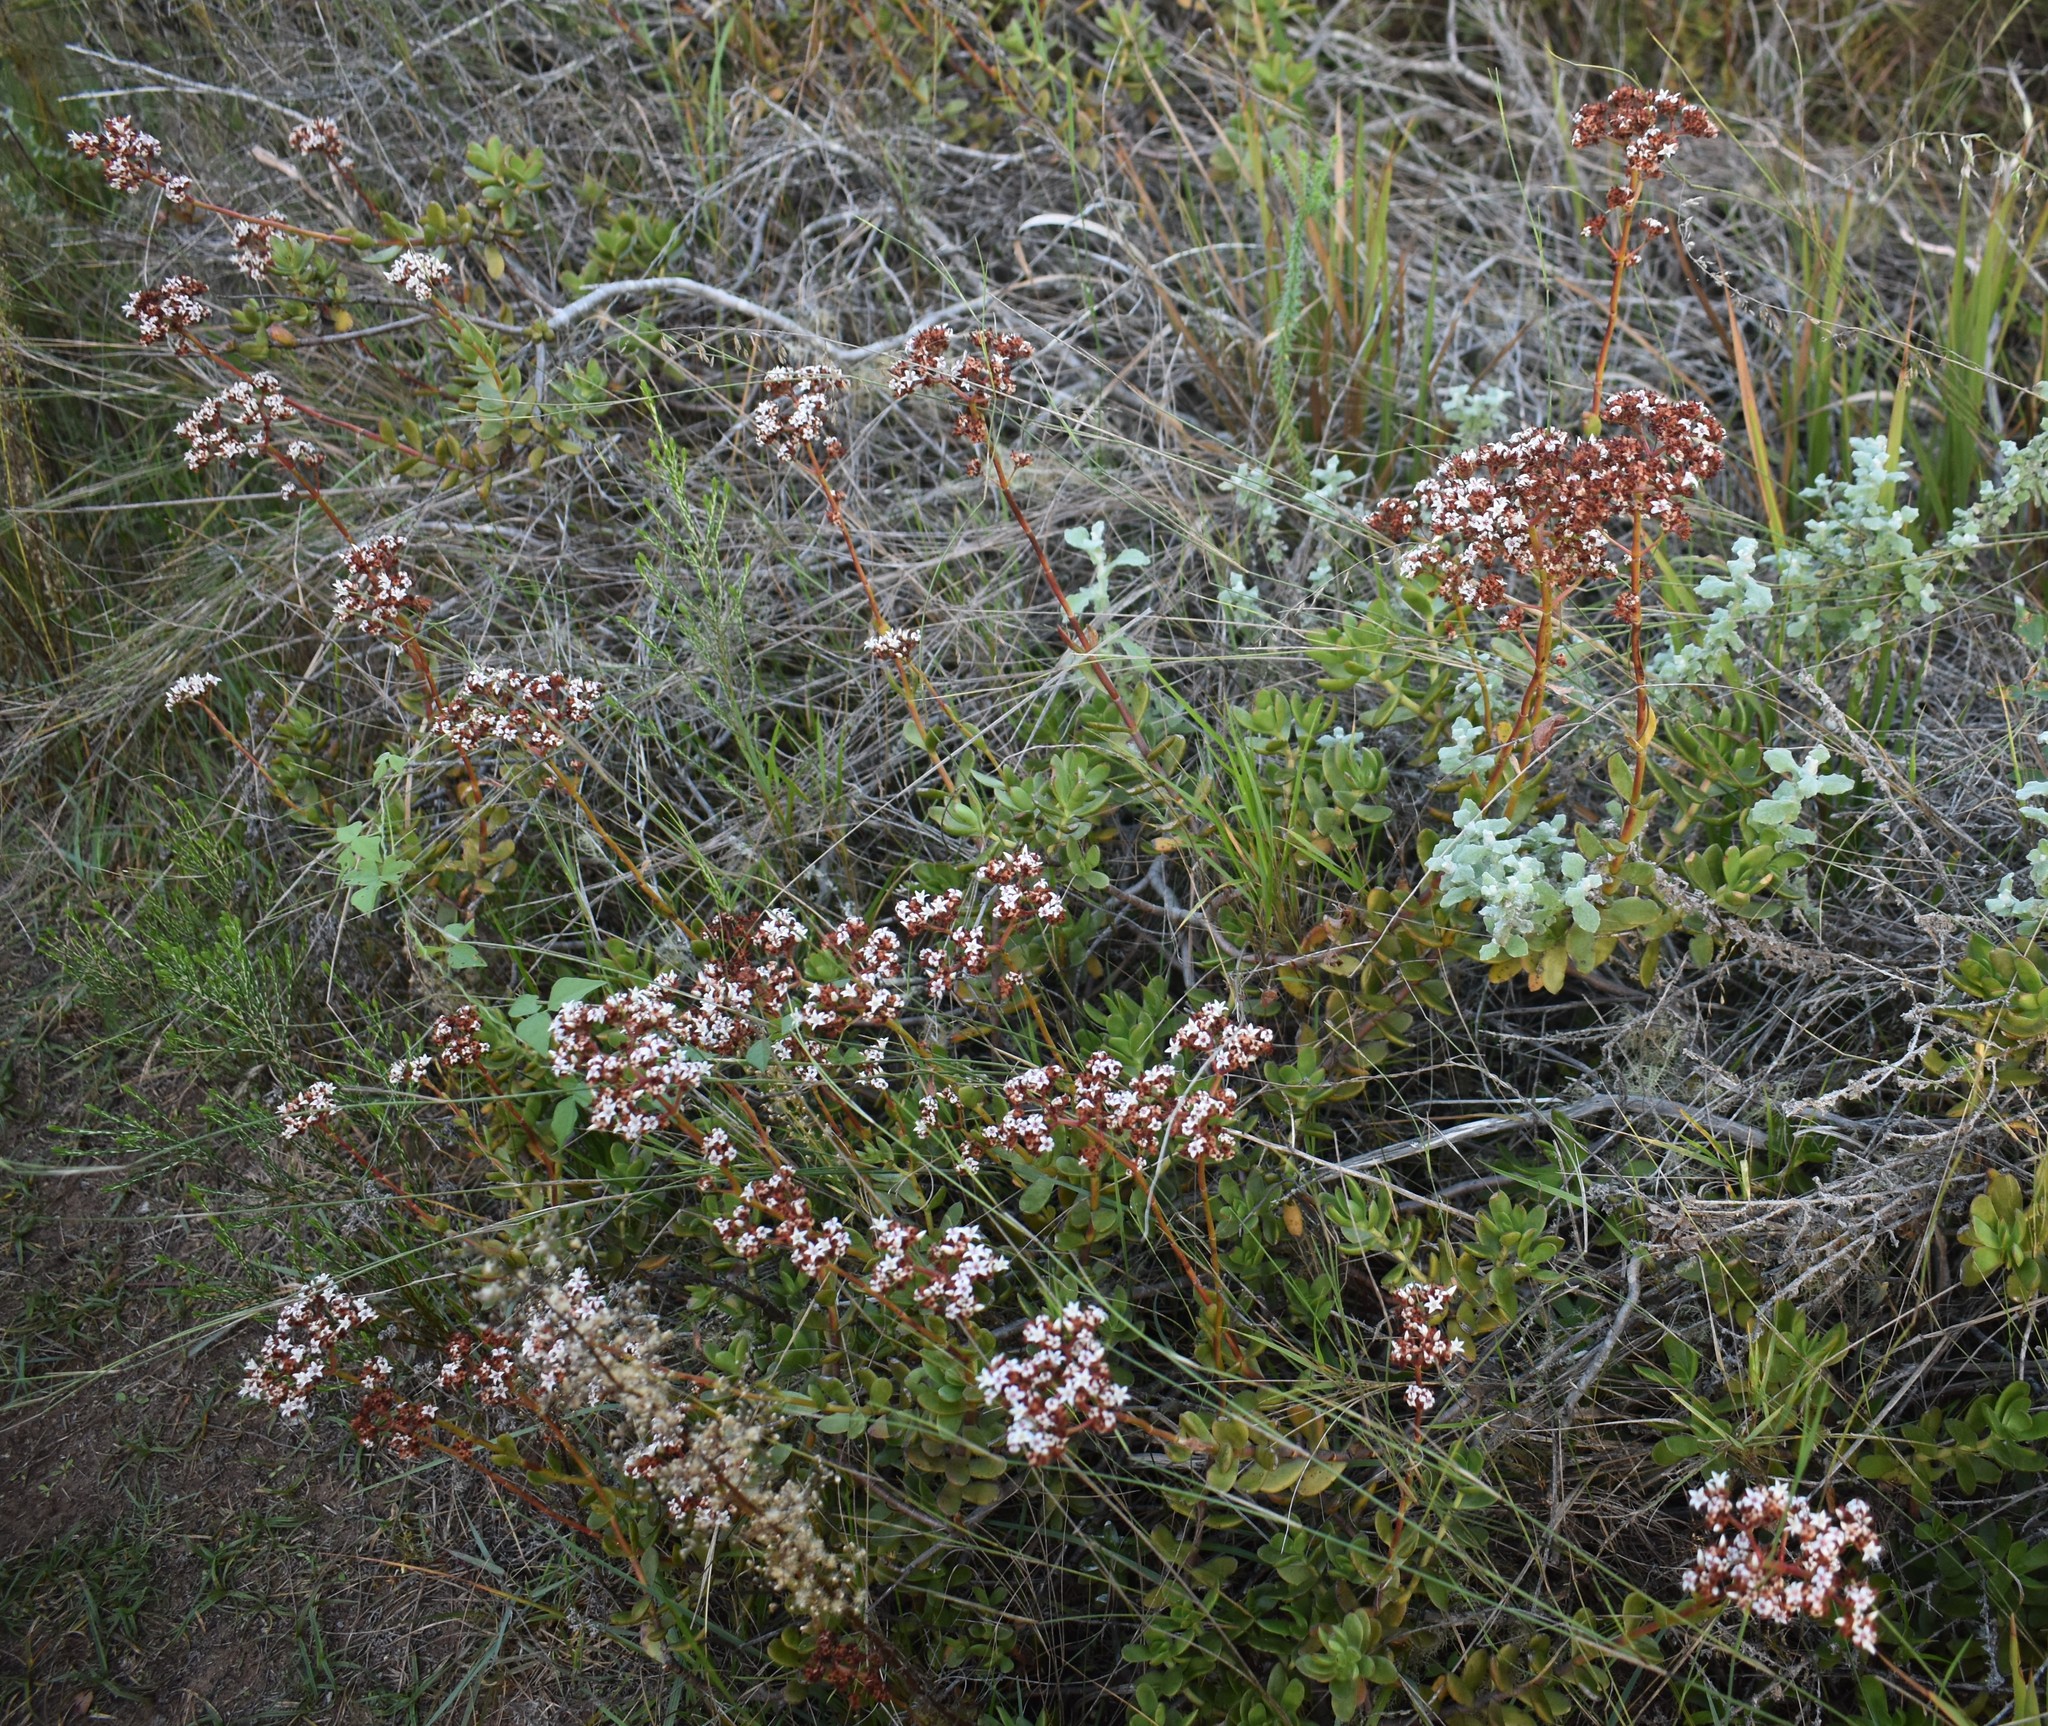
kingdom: Plantae
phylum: Tracheophyta
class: Magnoliopsida
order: Saxifragales
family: Crassulaceae
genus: Crassula
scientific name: Crassula rubricaulis
